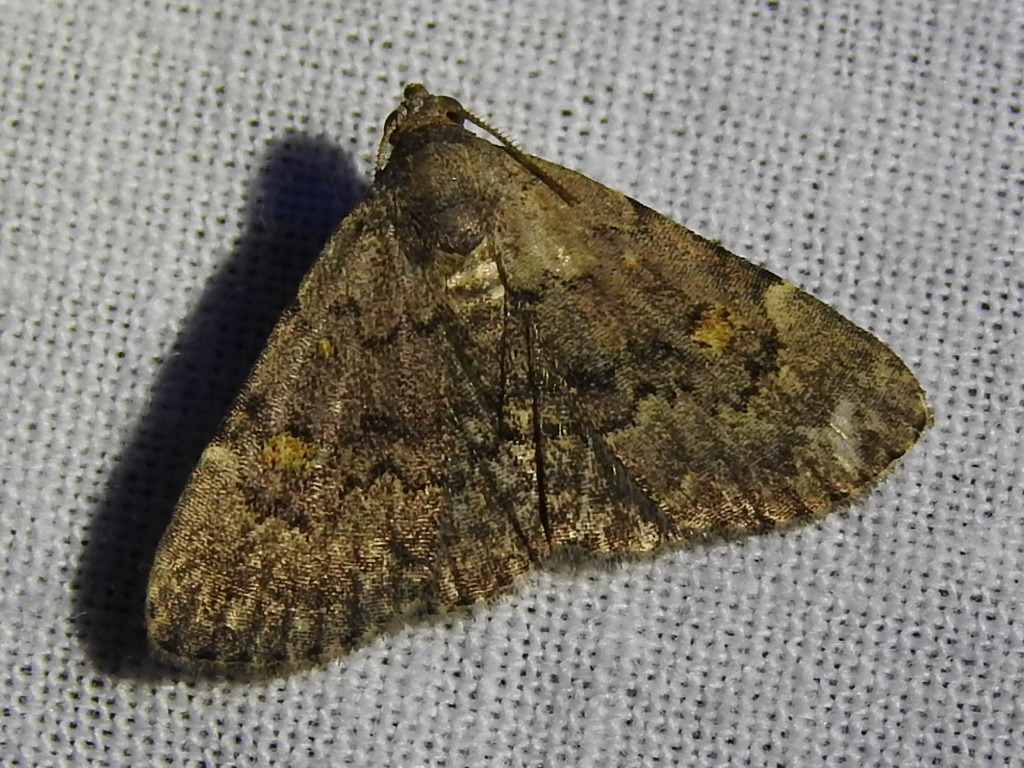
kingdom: Animalia
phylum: Arthropoda
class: Insecta
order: Lepidoptera
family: Erebidae
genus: Idia
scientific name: Idia aemula
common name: Common idia moth
